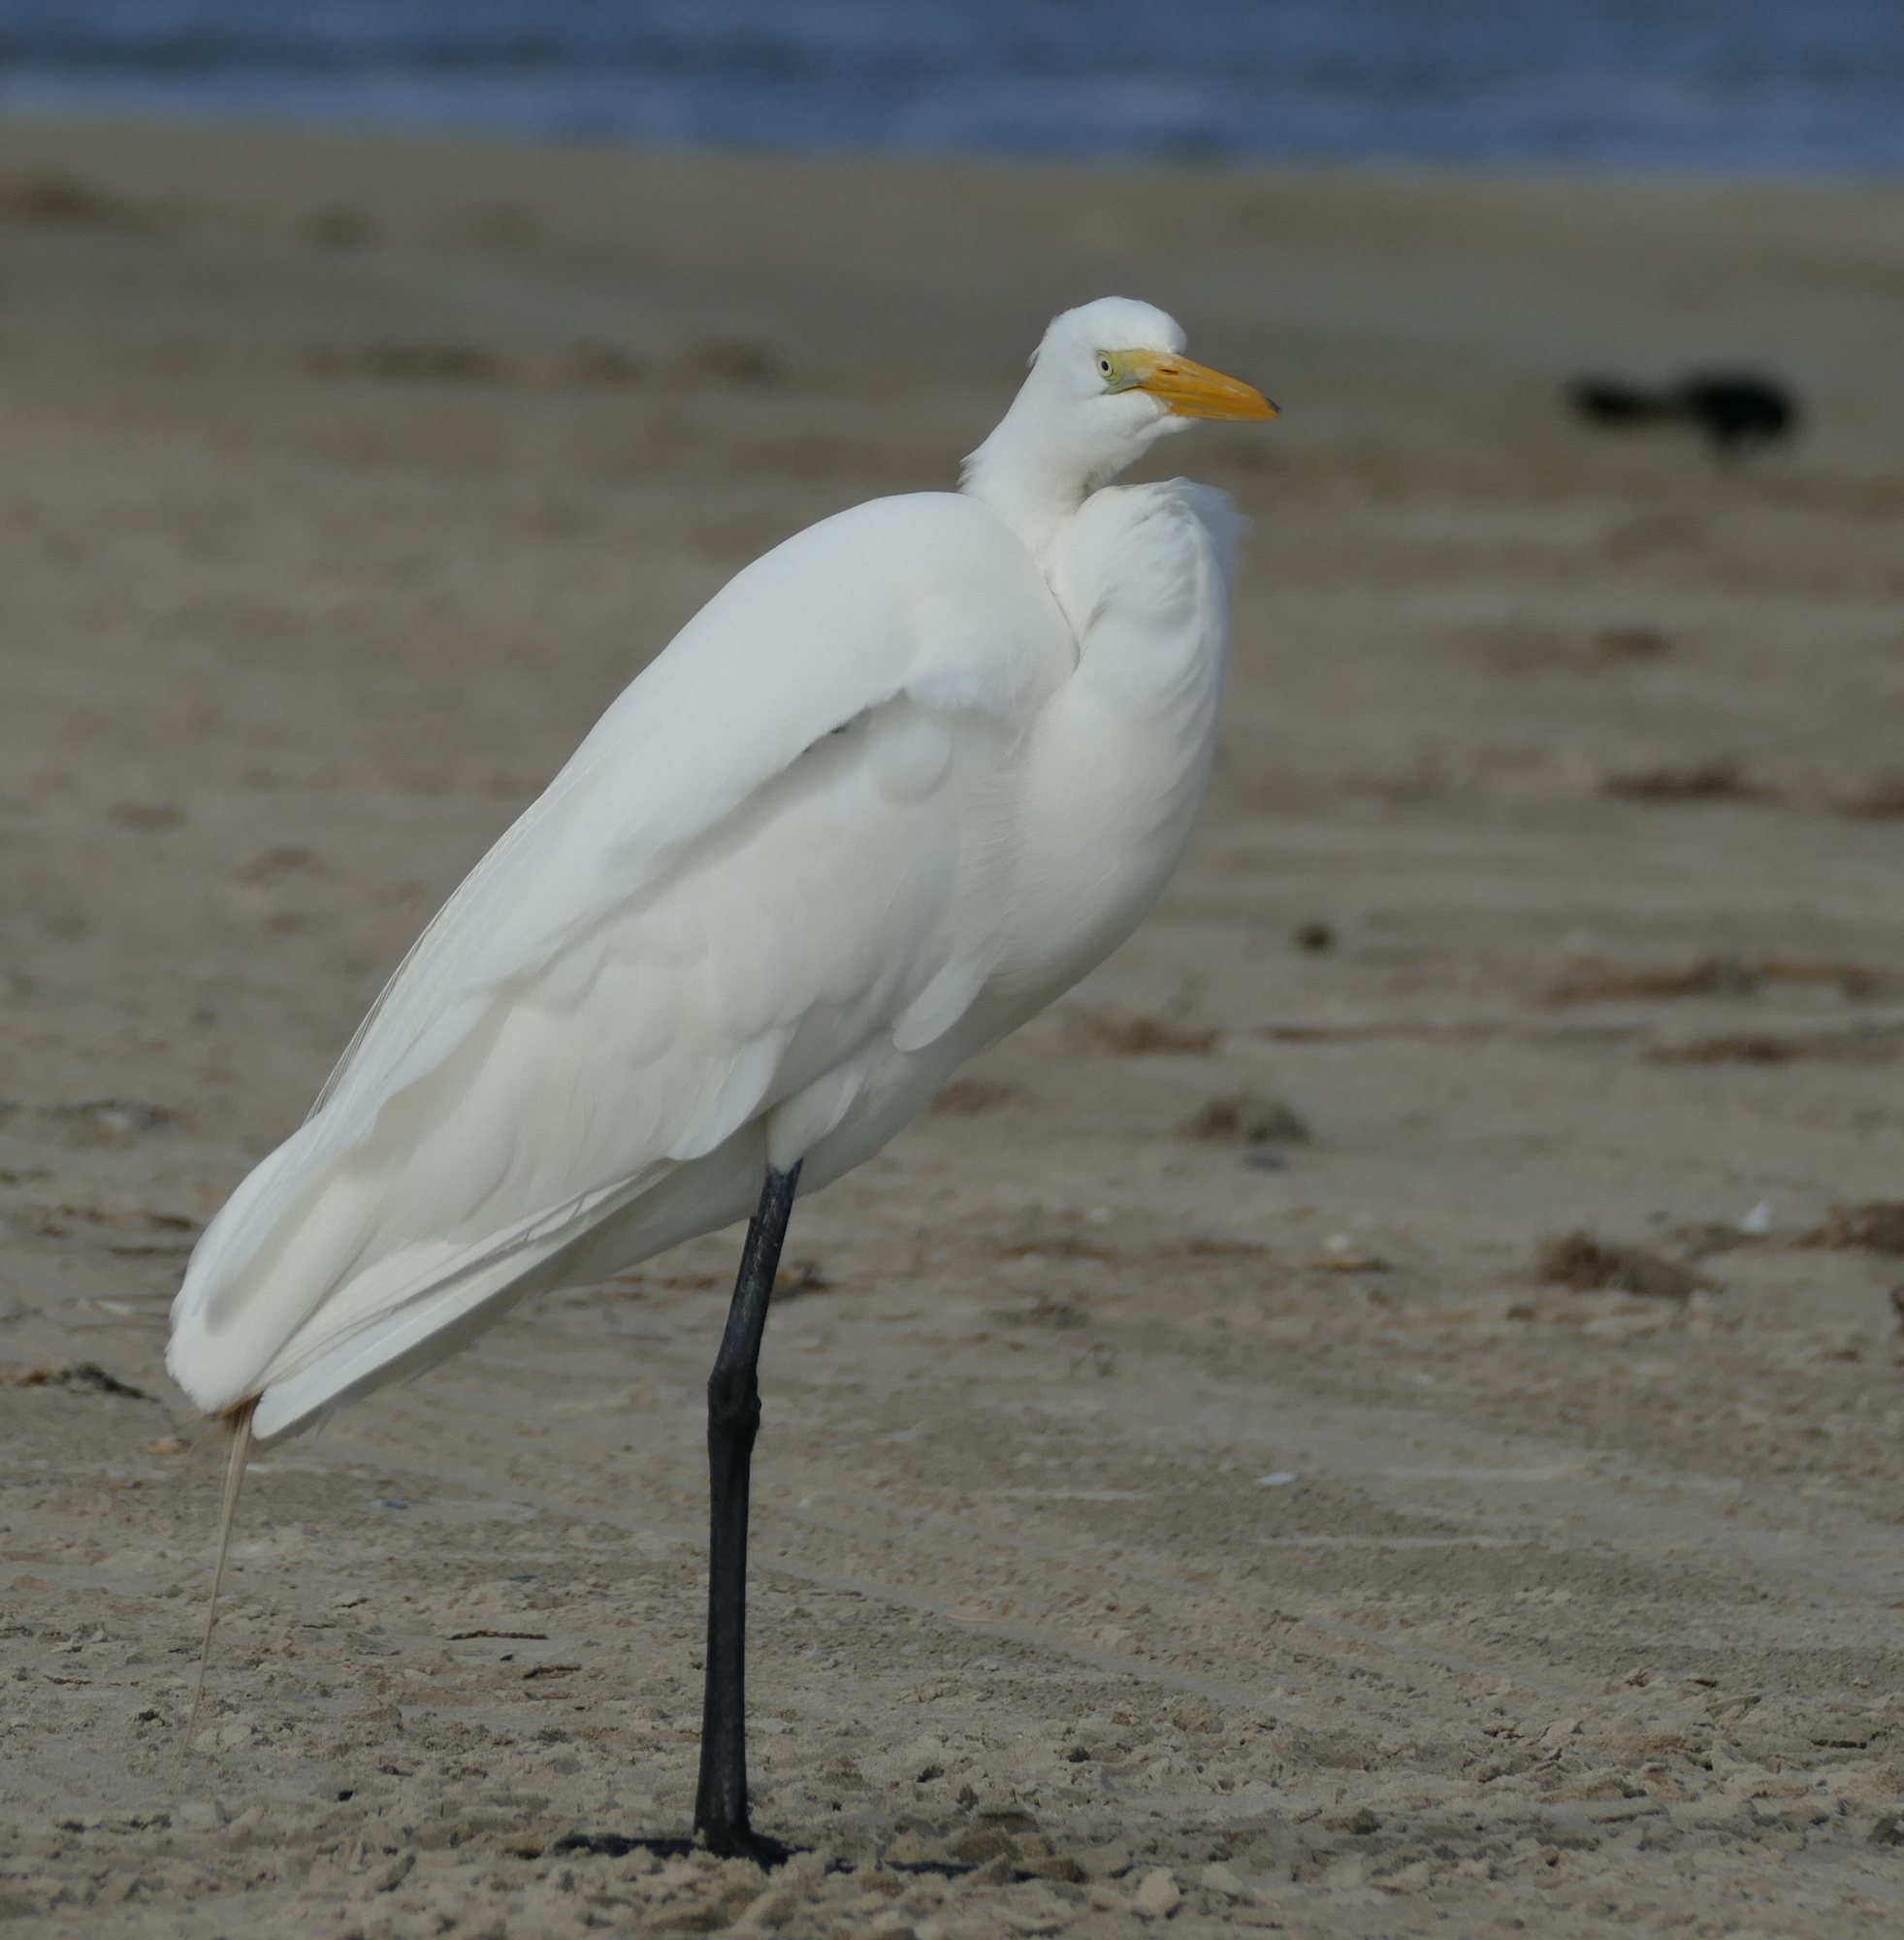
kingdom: Animalia
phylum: Chordata
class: Aves
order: Pelecaniformes
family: Ardeidae
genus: Ardea
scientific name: Ardea alba
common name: Great egret
